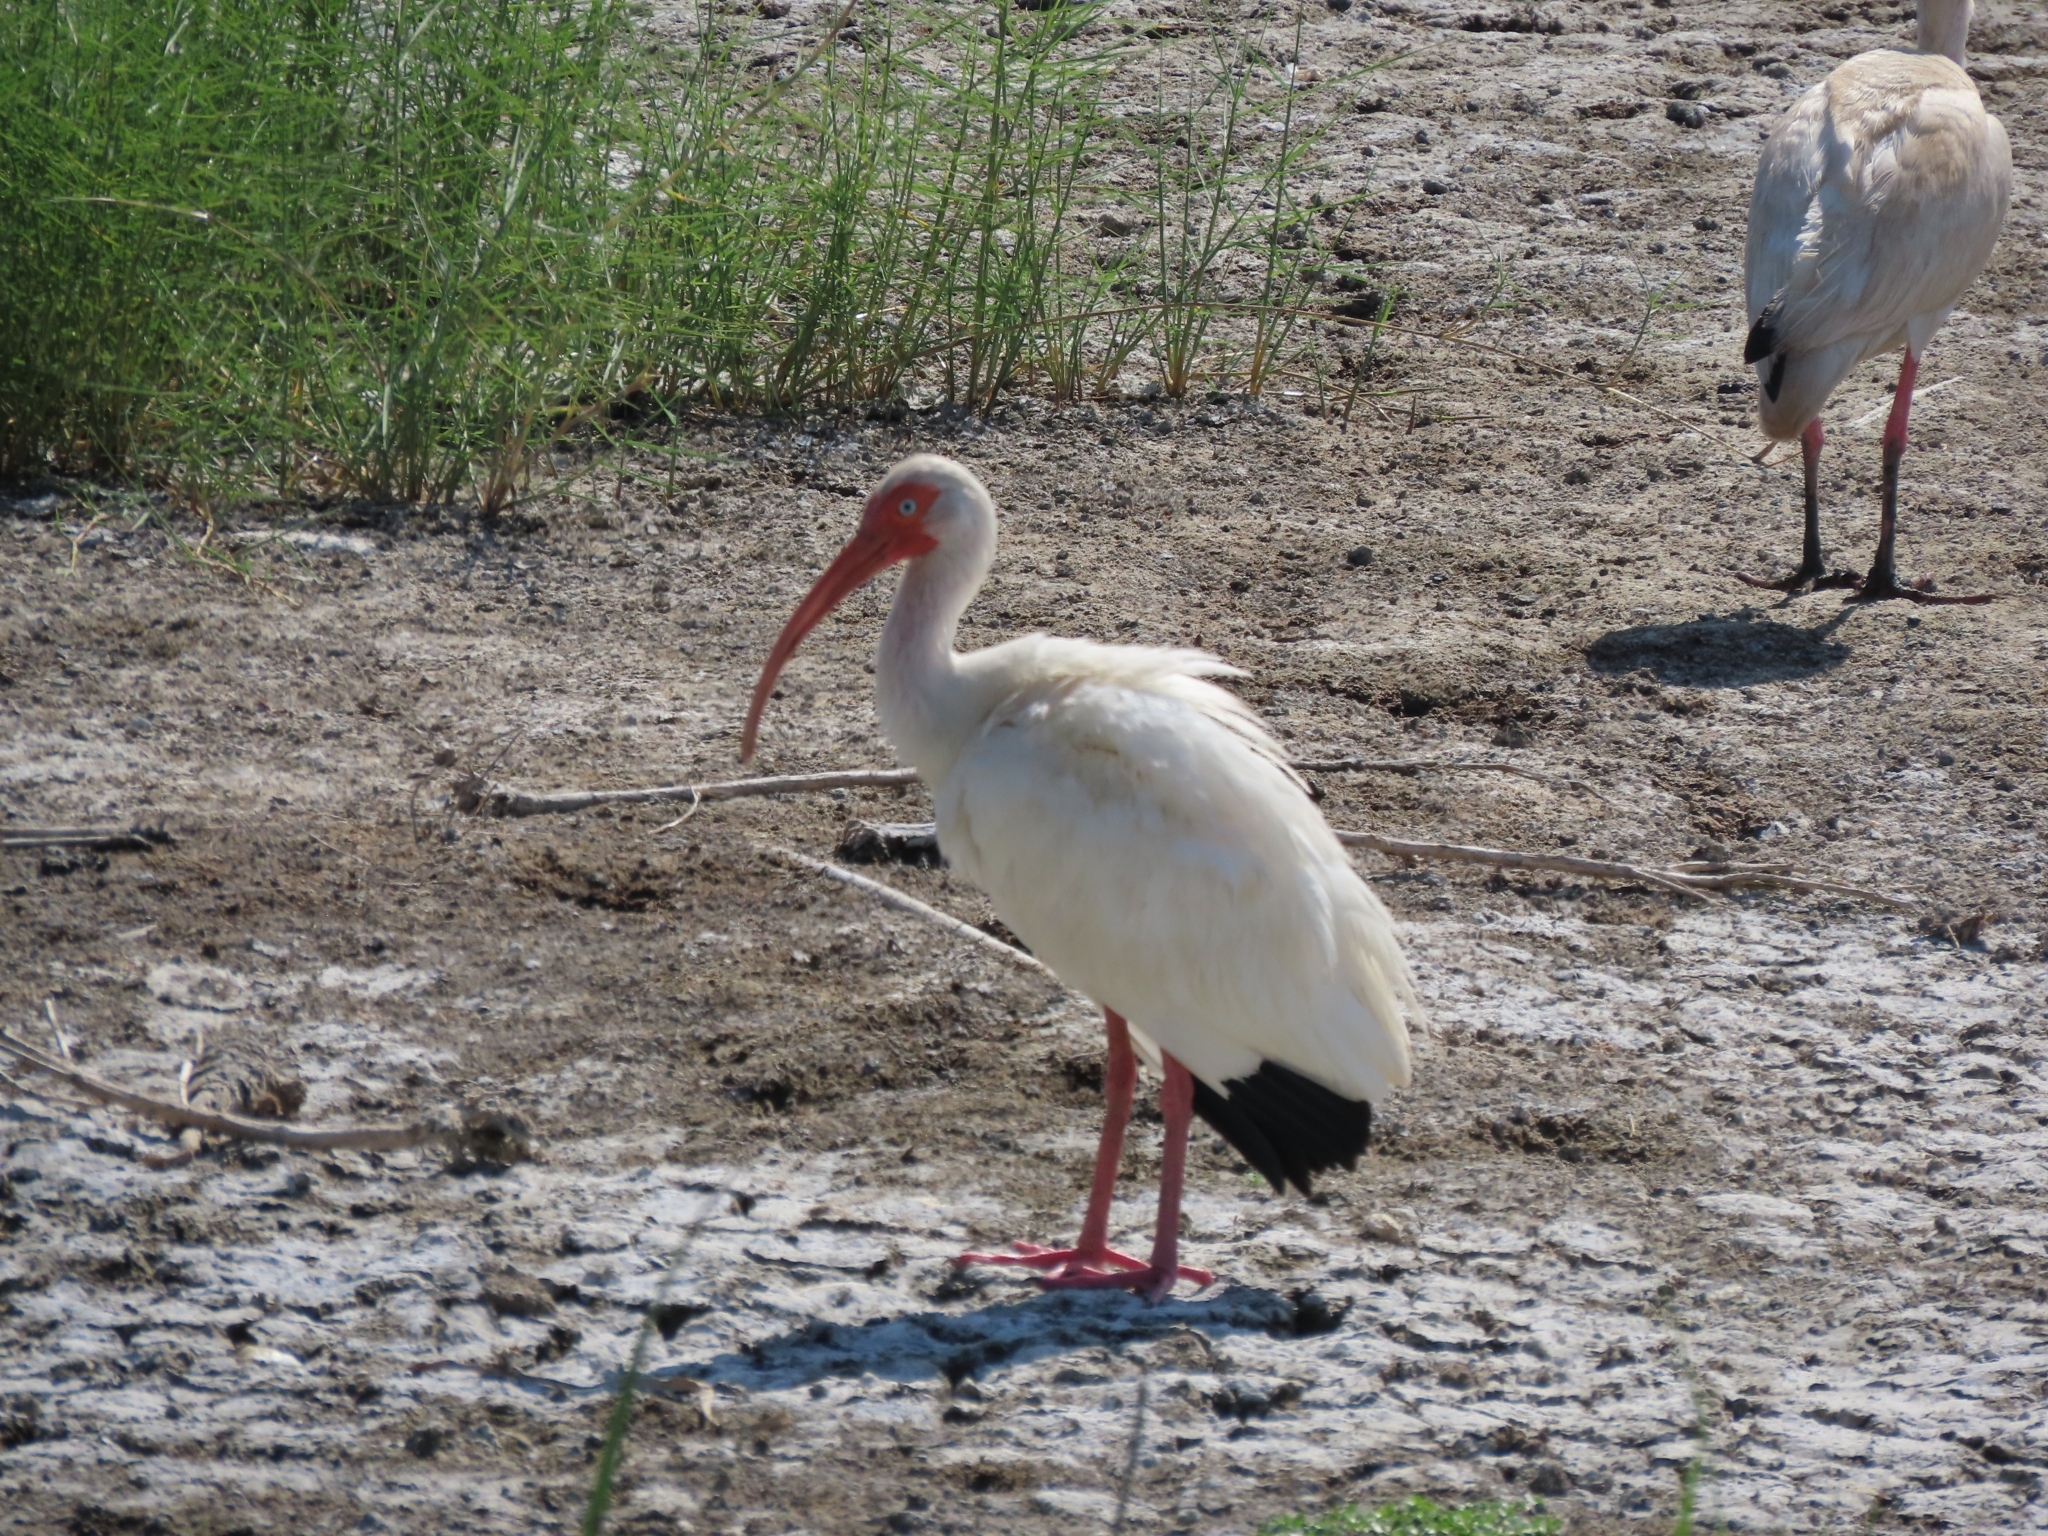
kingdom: Animalia
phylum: Chordata
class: Aves
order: Pelecaniformes
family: Threskiornithidae
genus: Eudocimus
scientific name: Eudocimus albus
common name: White ibis
